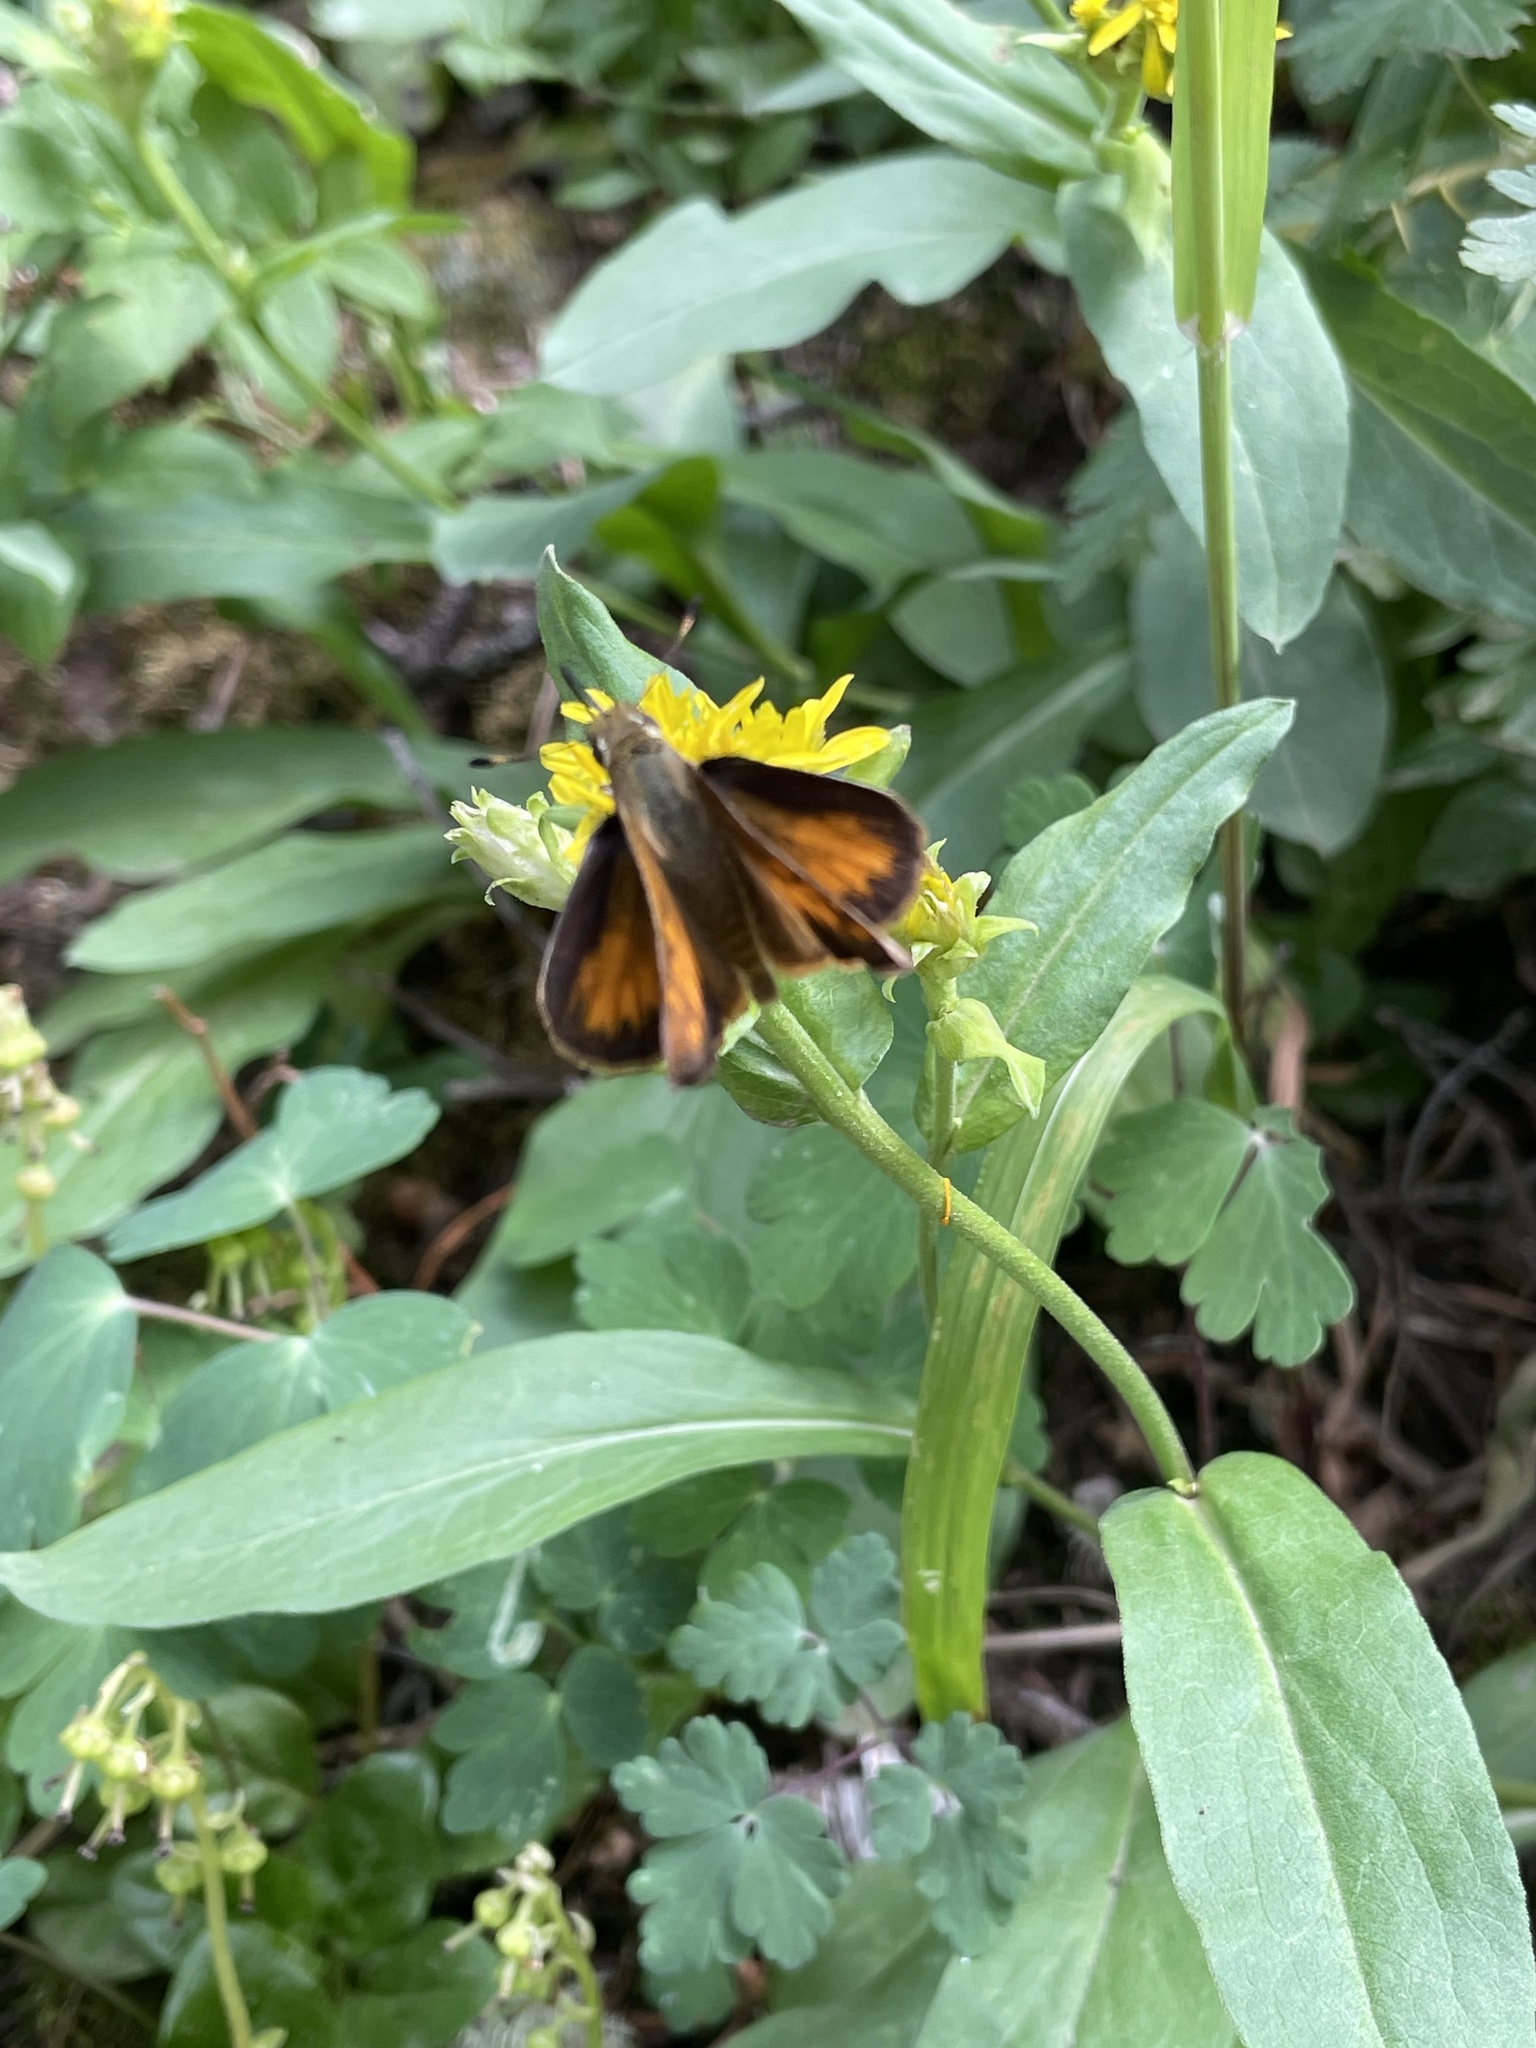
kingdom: Animalia
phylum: Arthropoda
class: Insecta
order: Lepidoptera
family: Hesperiidae
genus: Lon
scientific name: Lon taxiles
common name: Taxiles skipper
